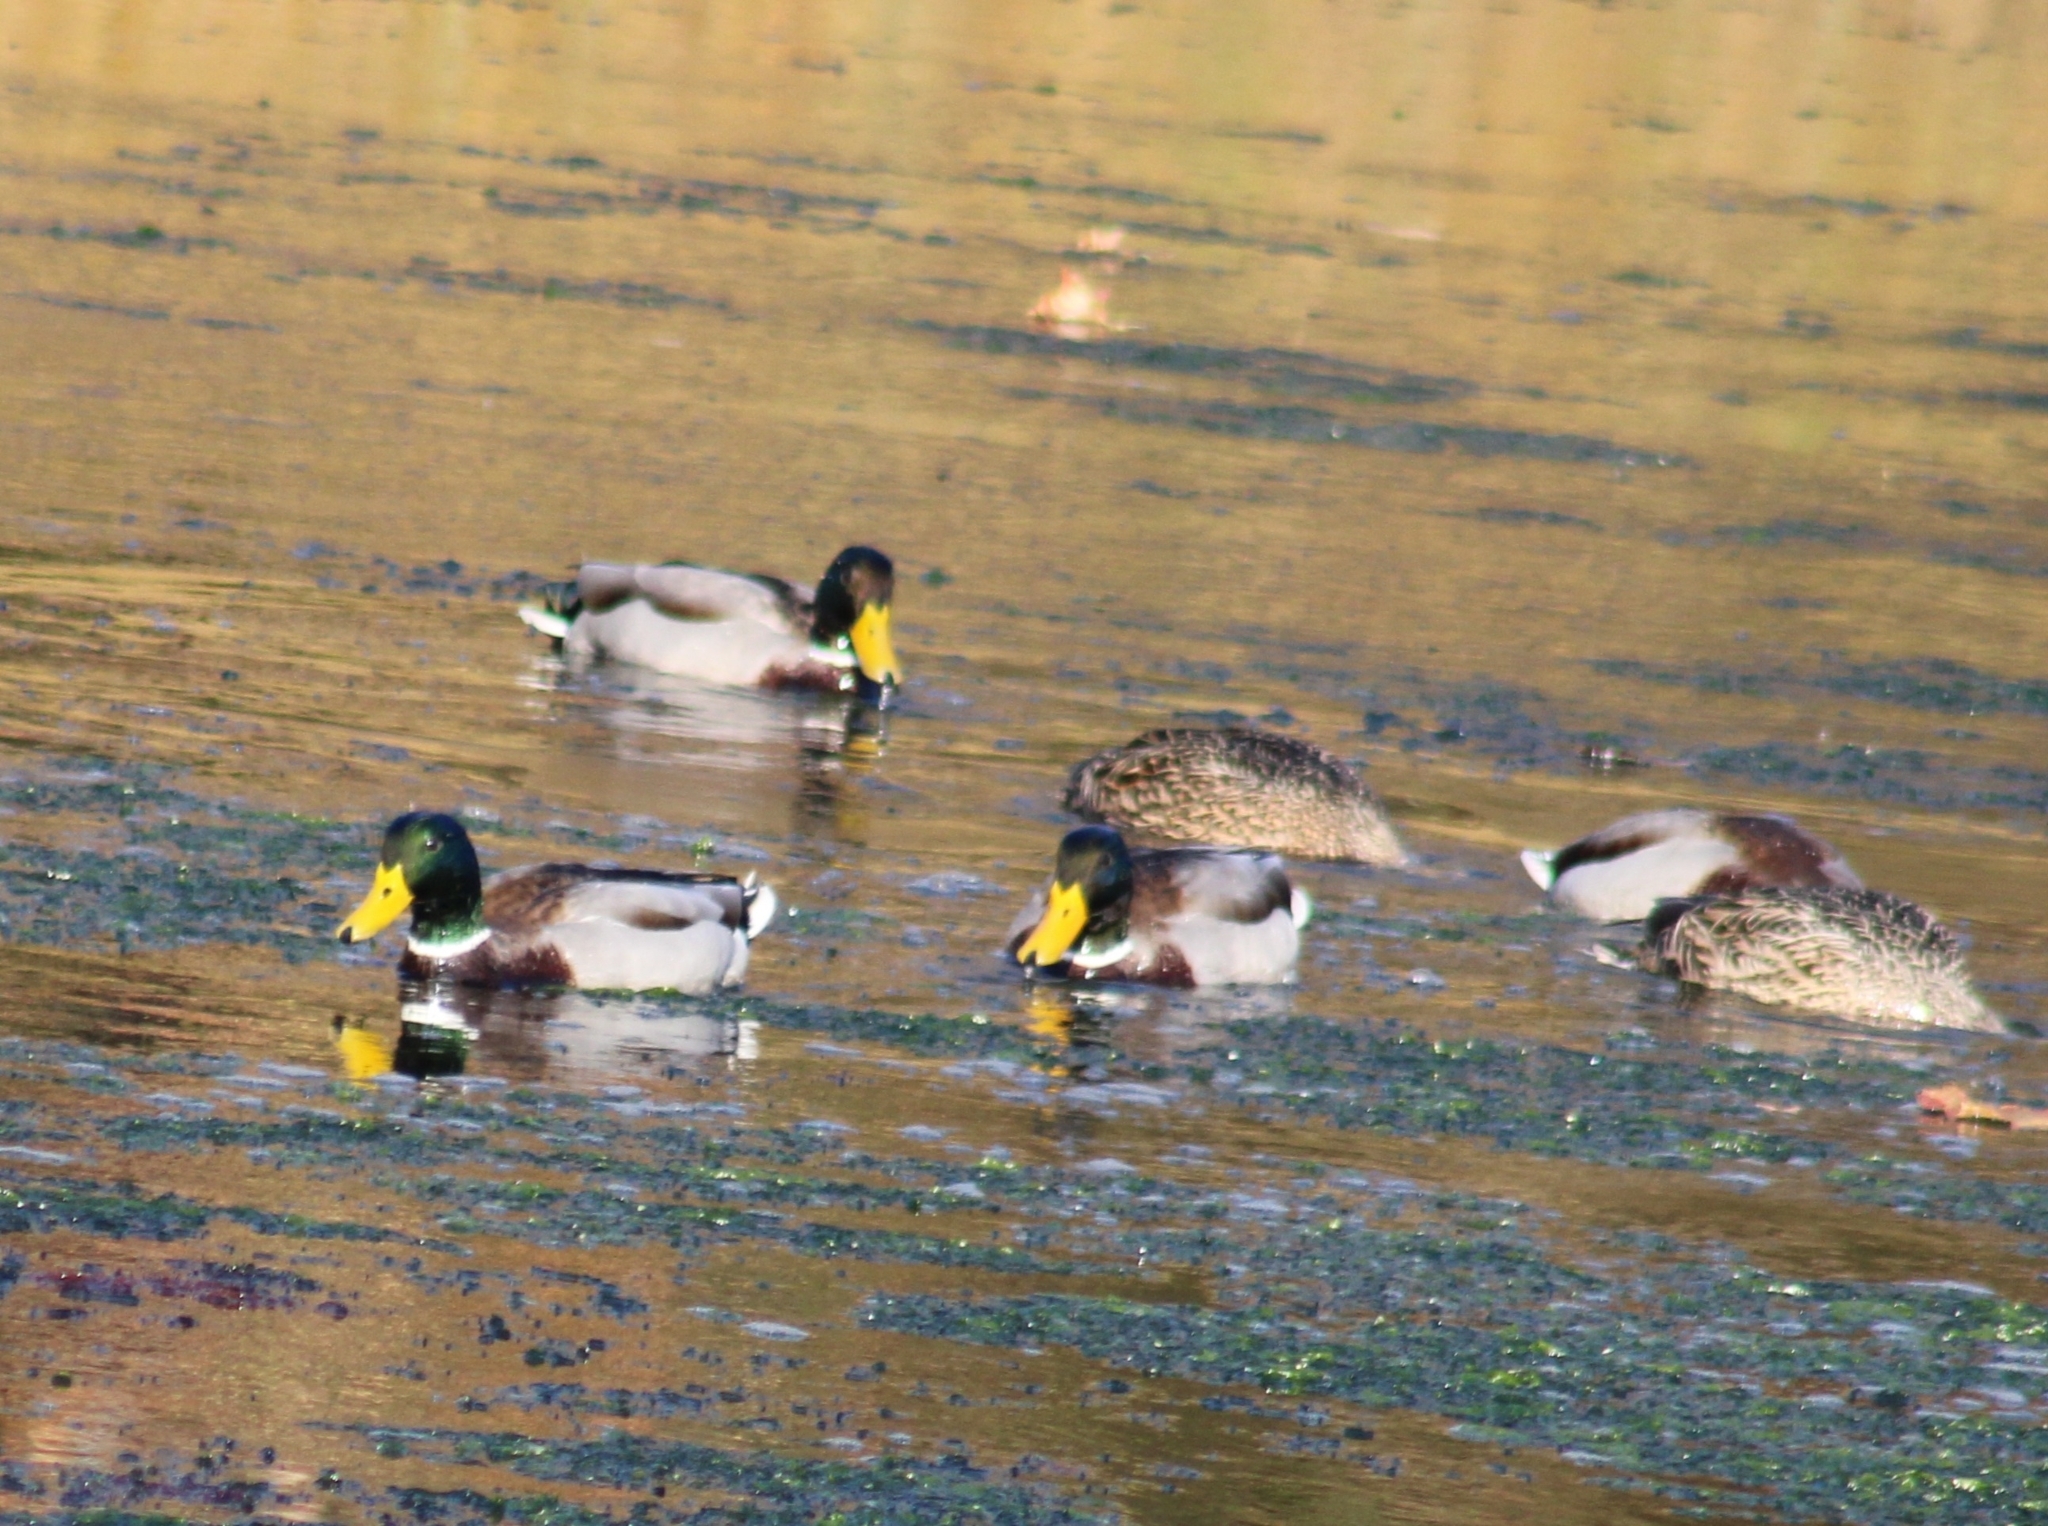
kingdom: Animalia
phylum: Chordata
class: Aves
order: Anseriformes
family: Anatidae
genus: Anas
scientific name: Anas platyrhynchos
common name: Mallard
